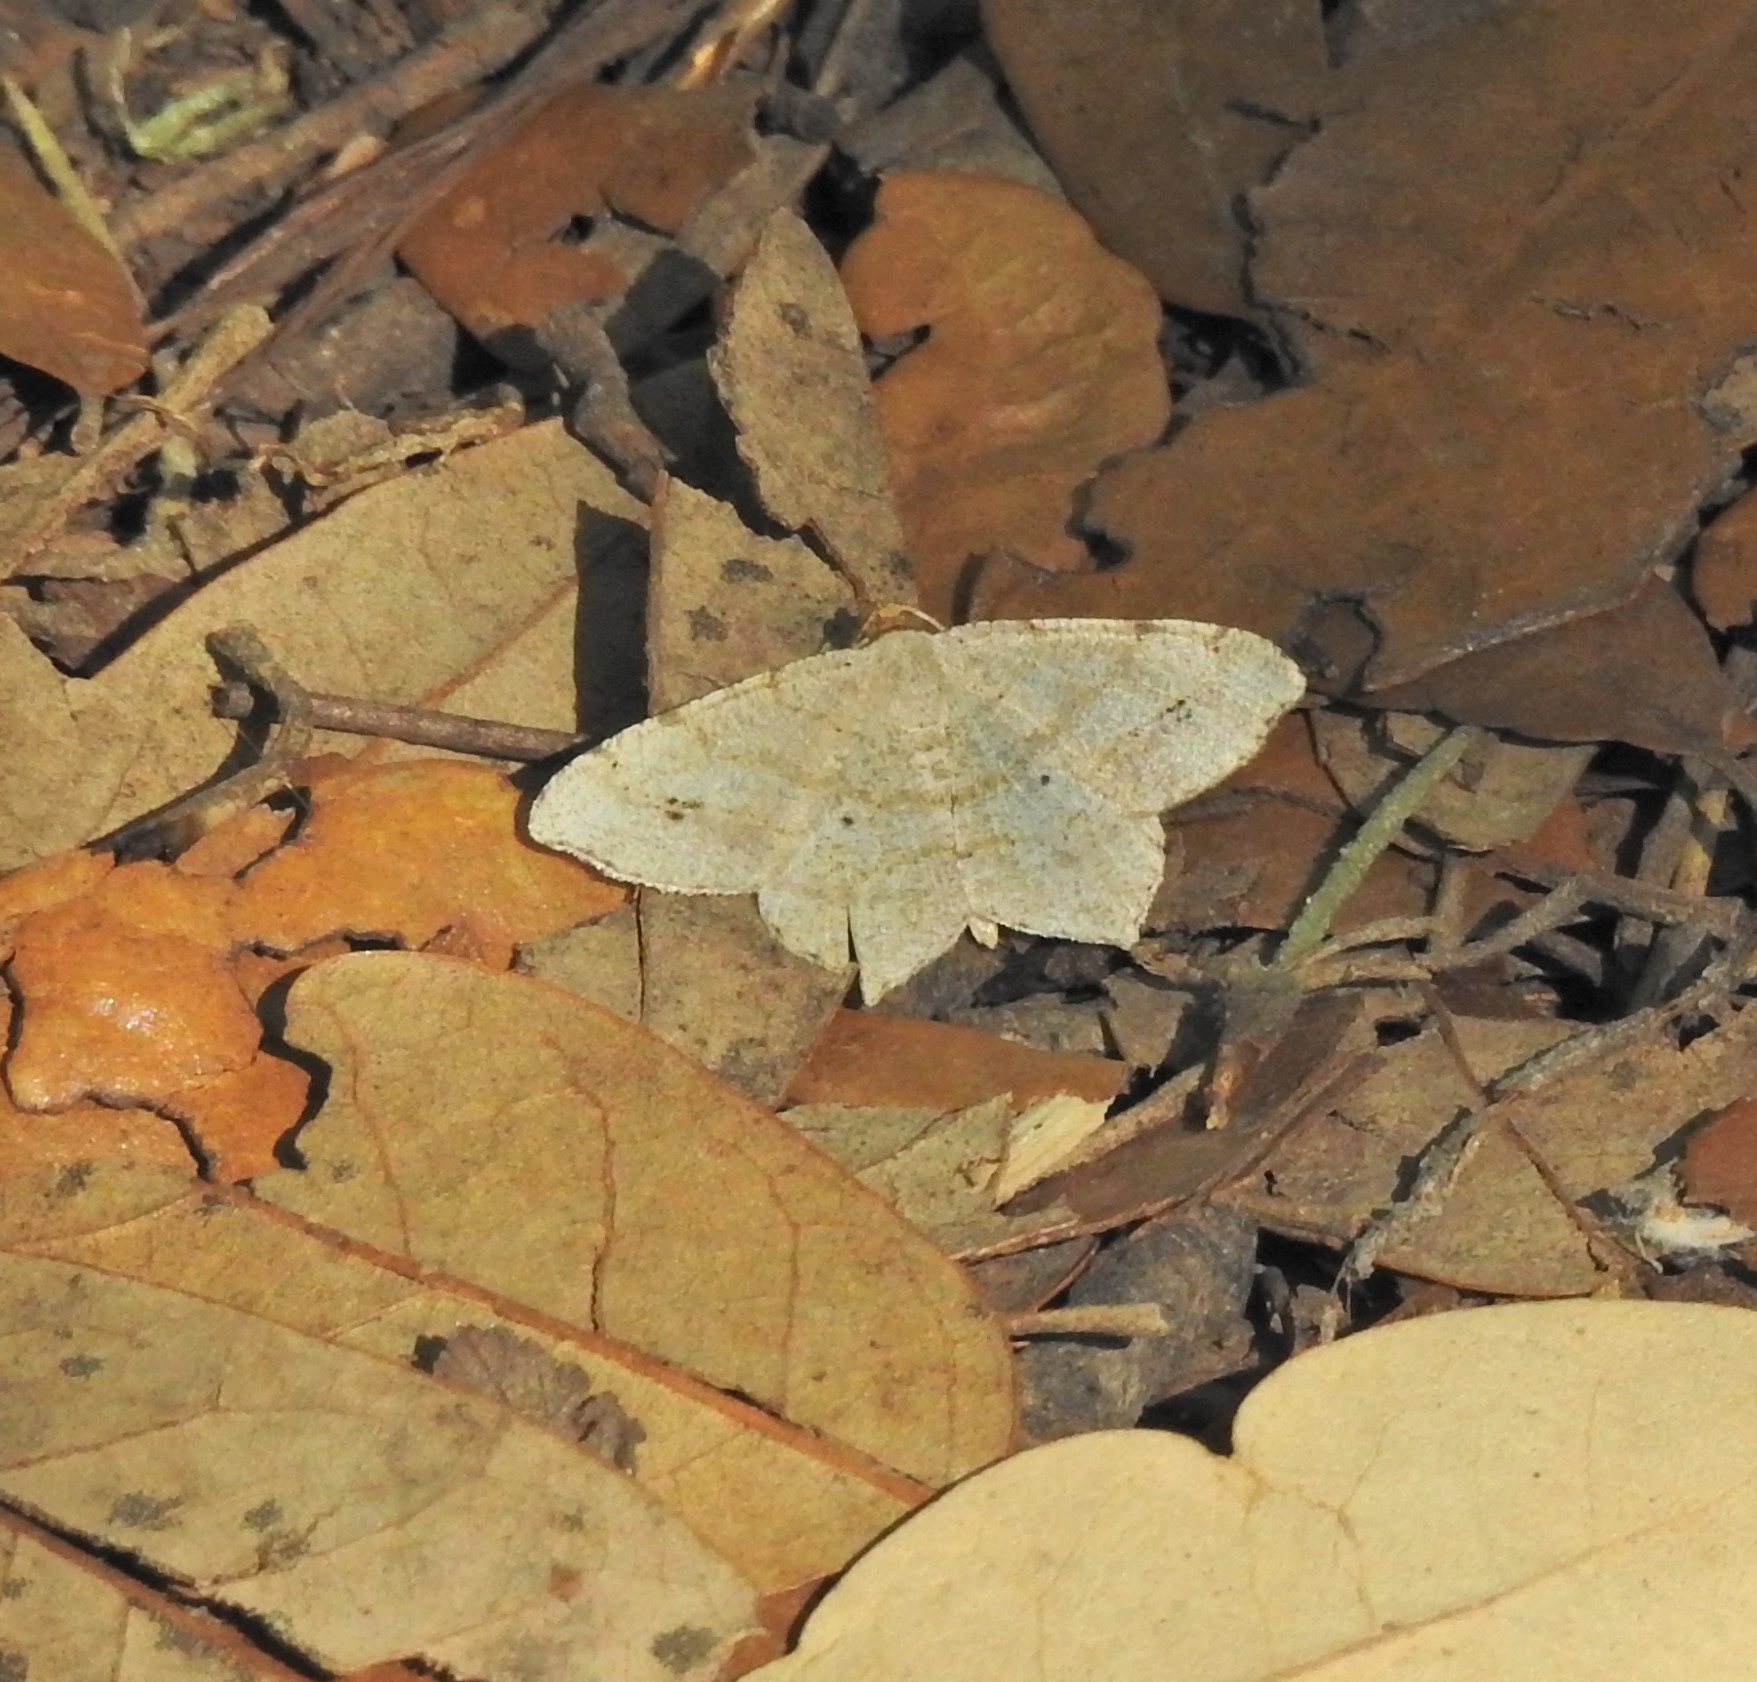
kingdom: Animalia
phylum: Arthropoda
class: Insecta
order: Lepidoptera
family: Geometridae
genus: Macaria
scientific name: Macaria abydata
